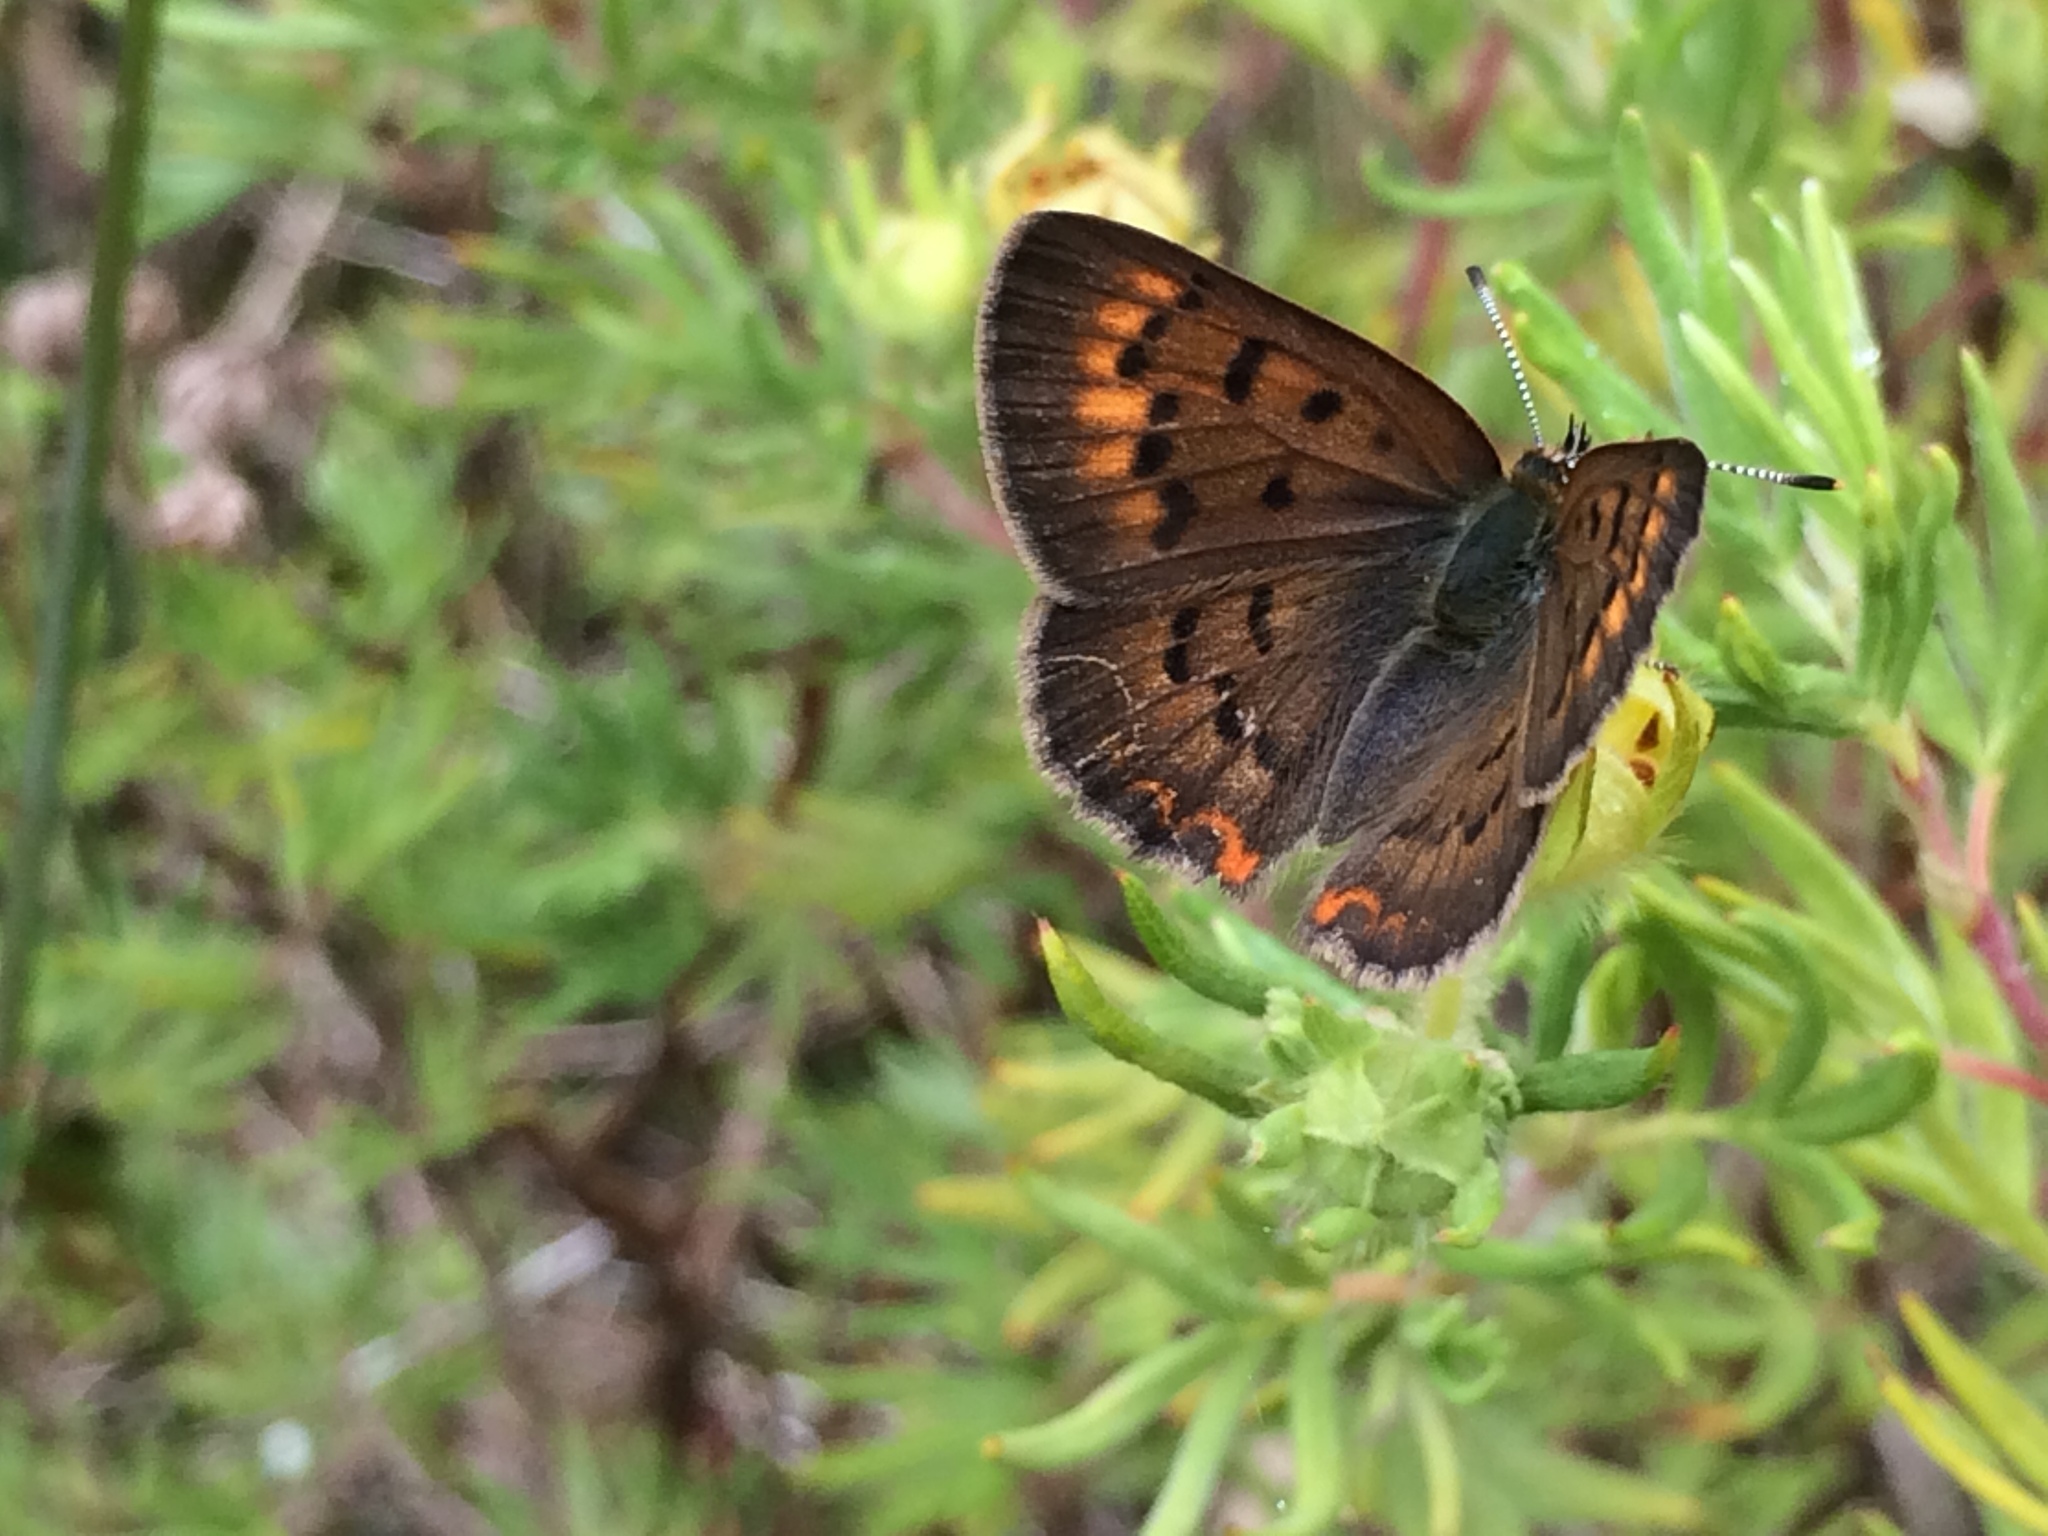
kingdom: Animalia
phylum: Arthropoda
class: Insecta
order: Lepidoptera
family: Lycaenidae
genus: Tharsalea
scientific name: Tharsalea dorcas
